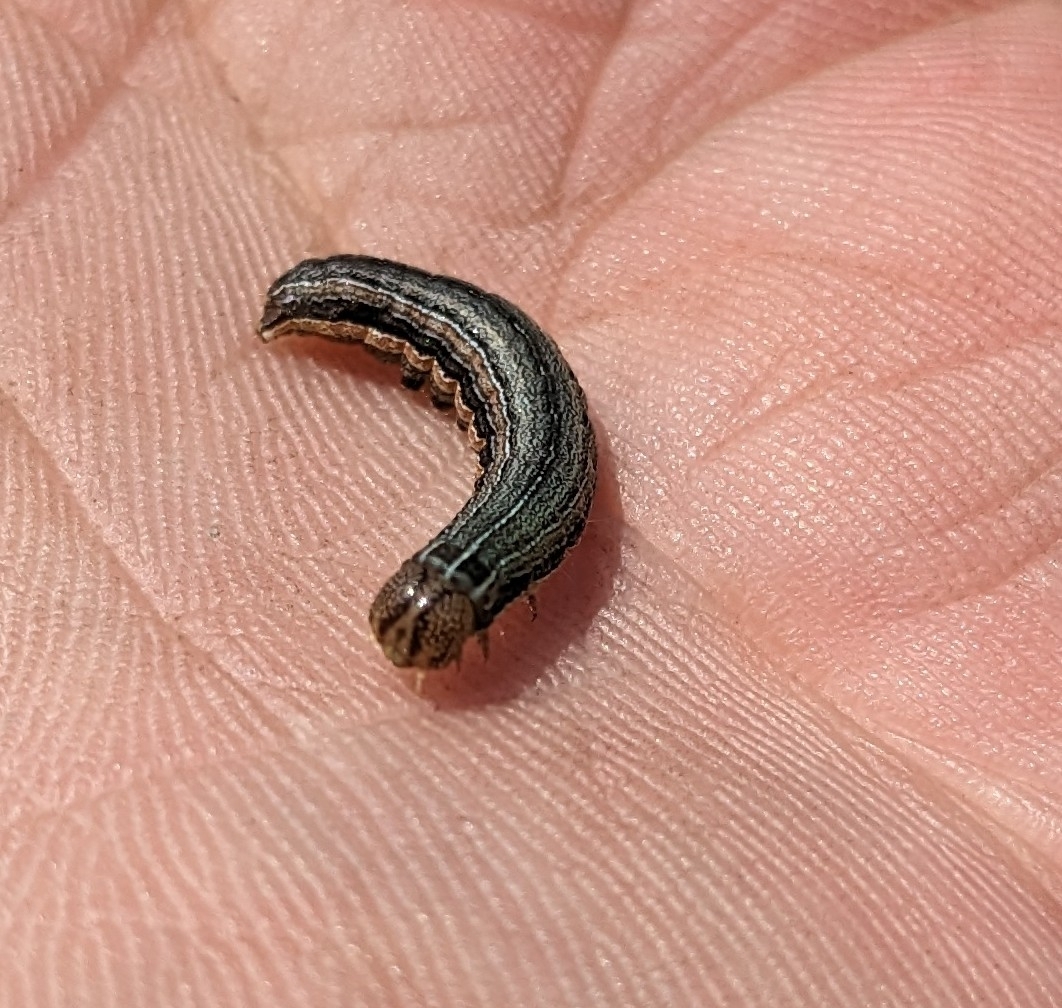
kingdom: Animalia
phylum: Arthropoda
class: Insecta
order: Lepidoptera
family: Noctuidae
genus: Spodoptera
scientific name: Spodoptera frugiperda
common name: Fall armyworm
